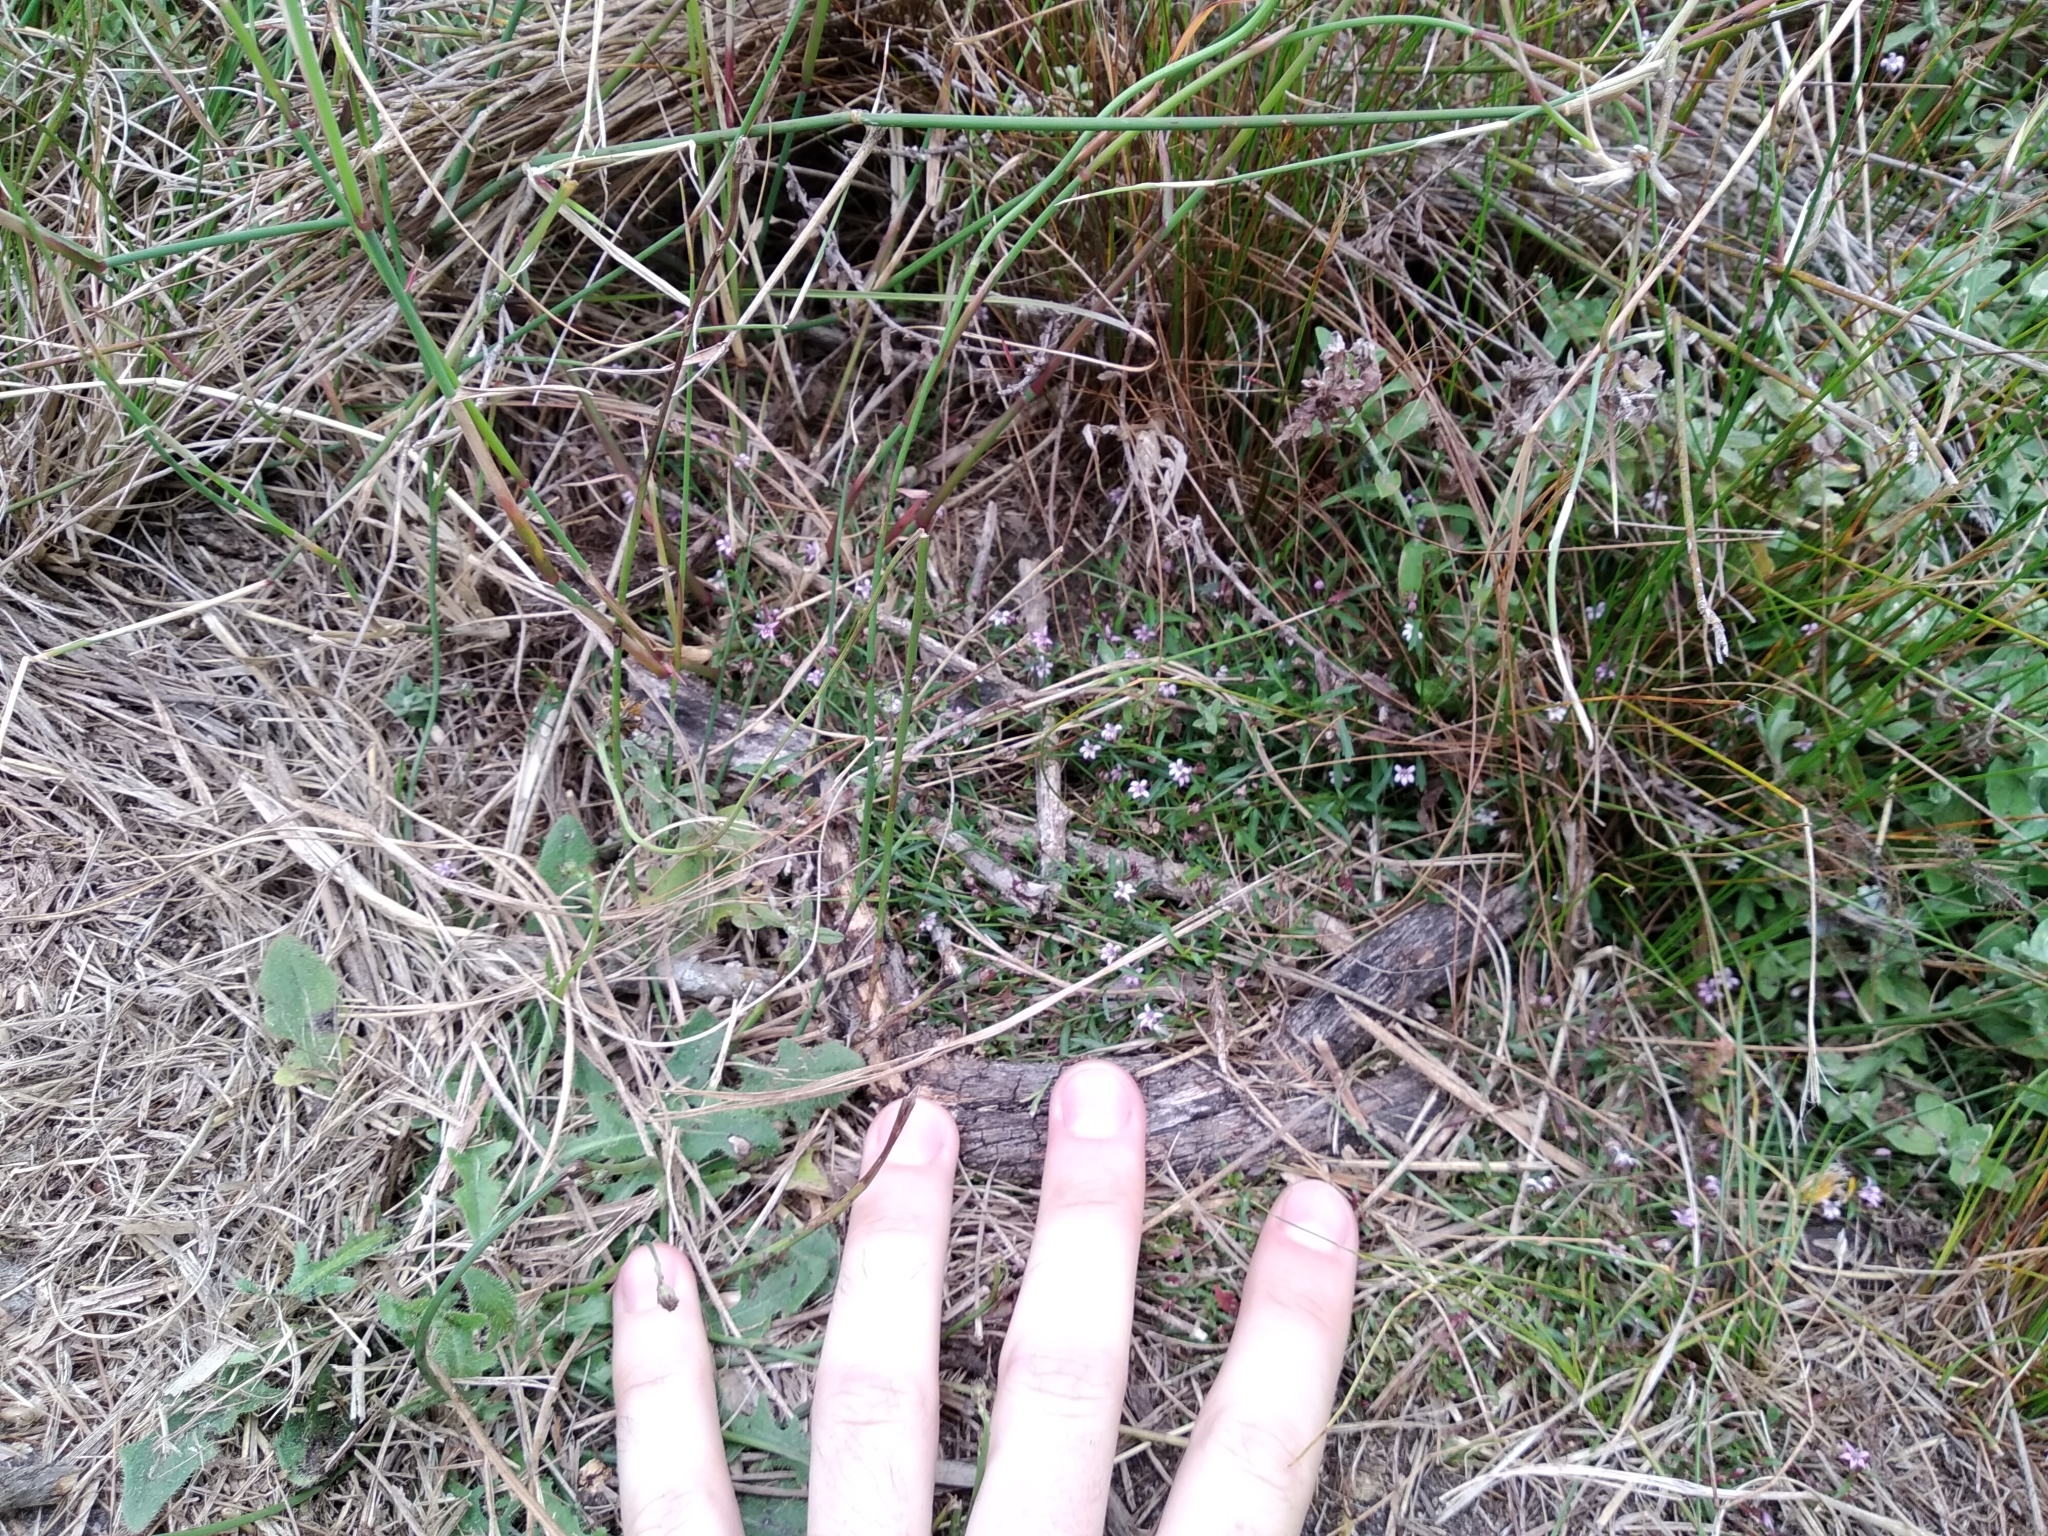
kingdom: Plantae
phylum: Tracheophyta
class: Magnoliopsida
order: Asterales
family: Campanulaceae
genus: Lobelia
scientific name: Lobelia eckloniana
